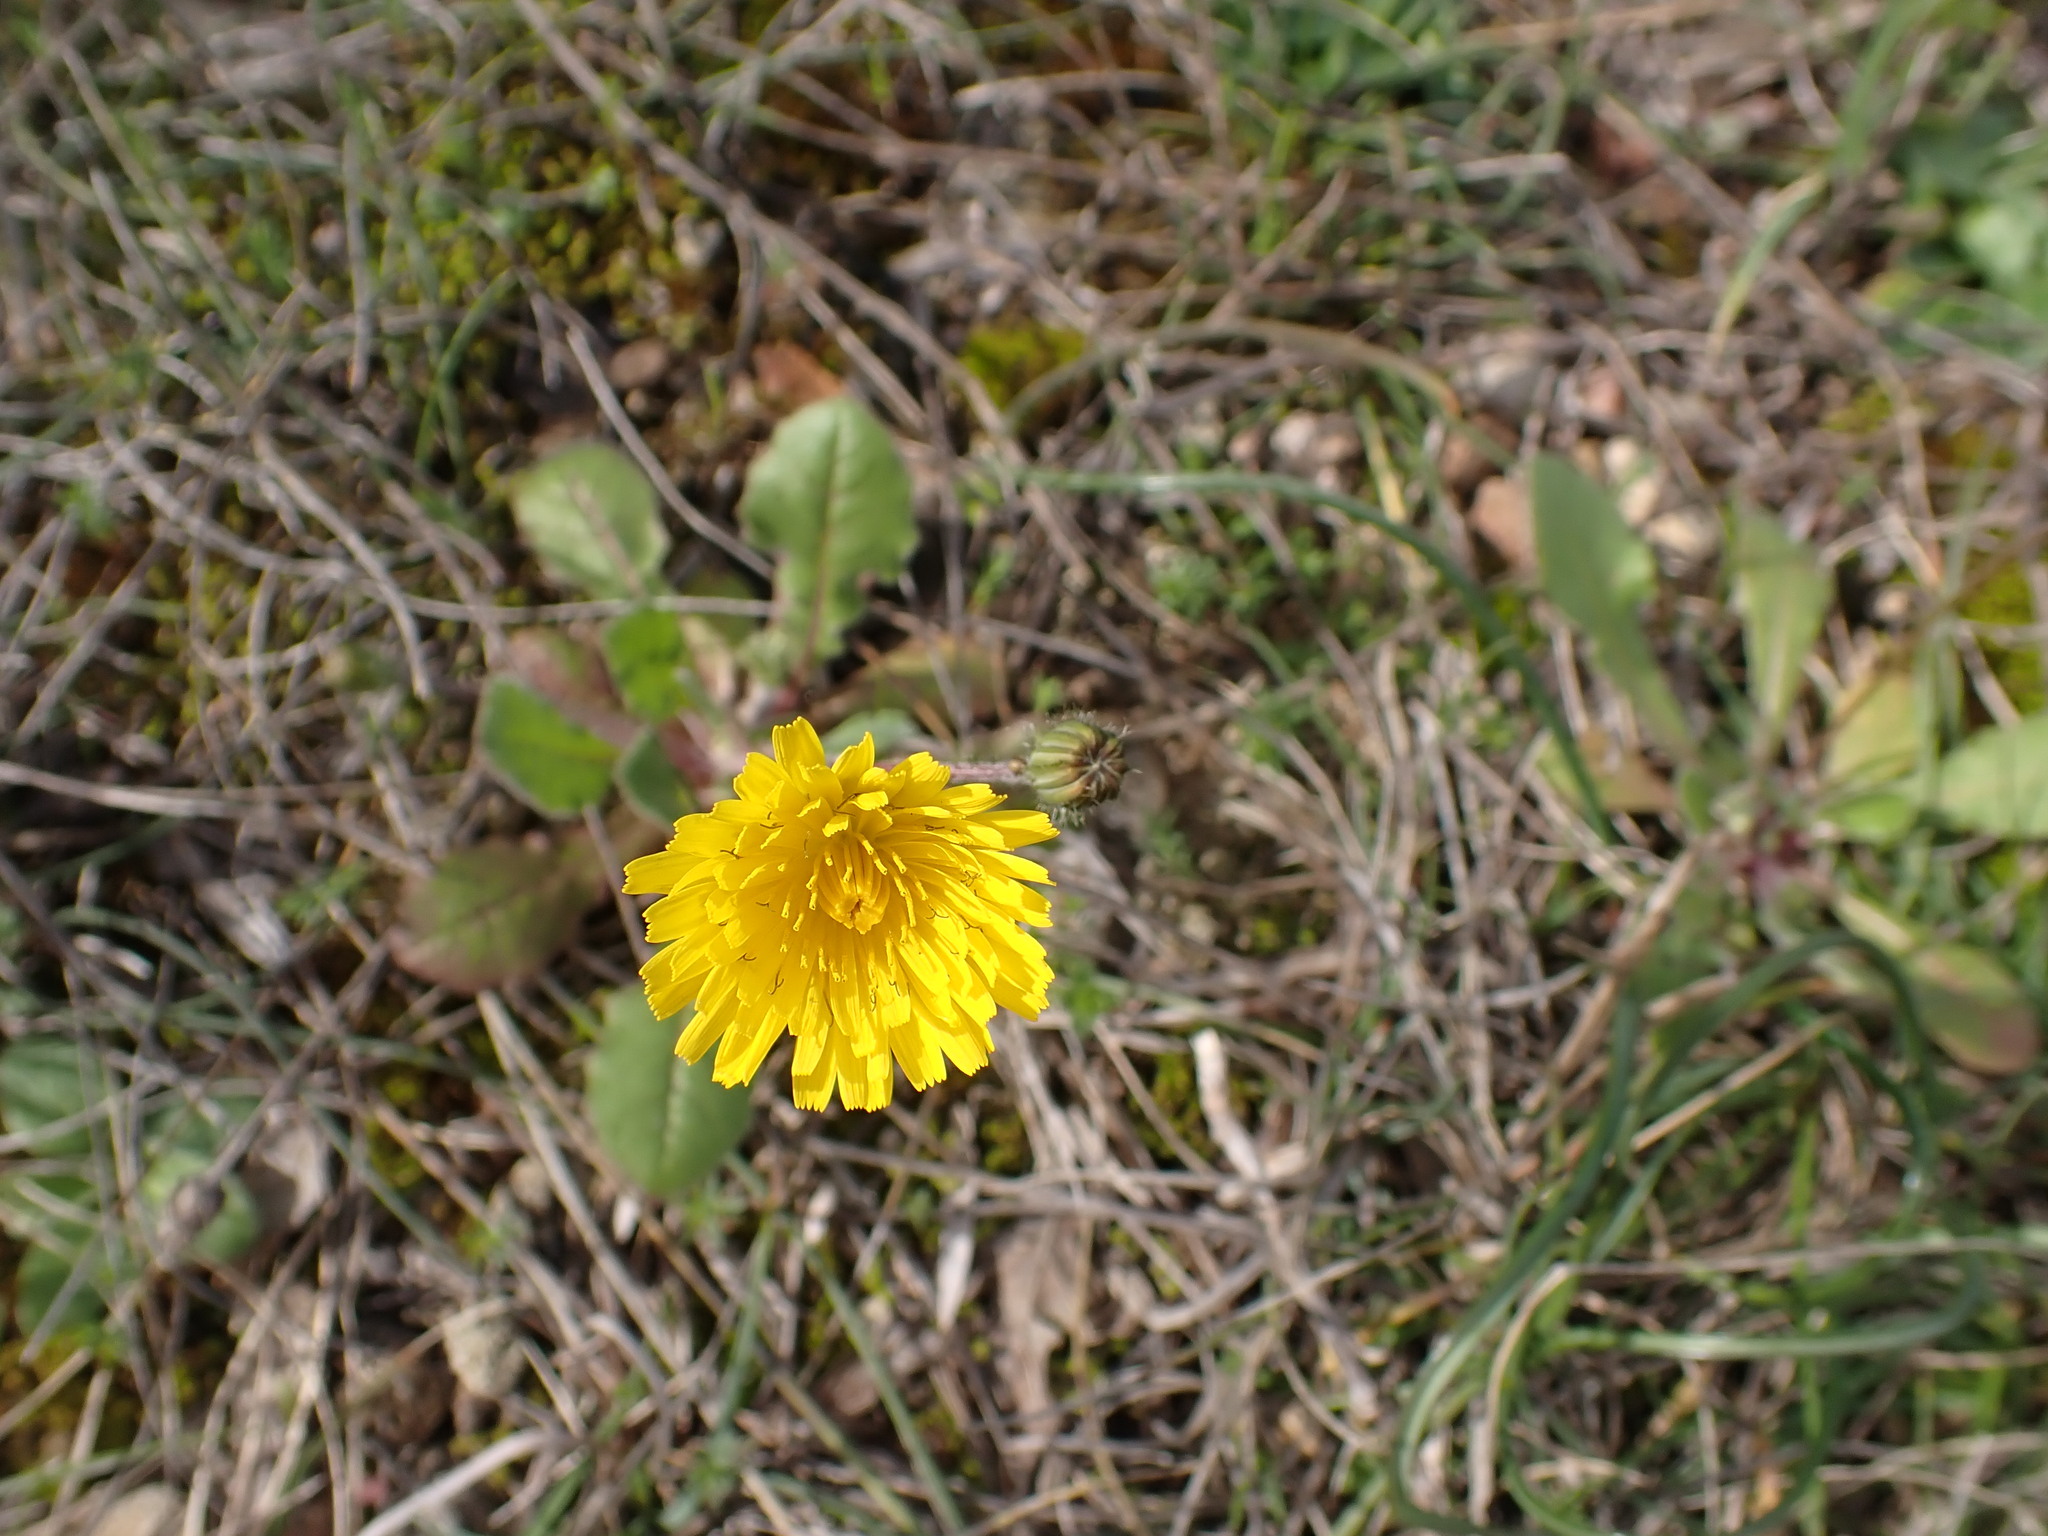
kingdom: Plantae
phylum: Tracheophyta
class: Magnoliopsida
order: Asterales
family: Asteraceae
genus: Crepis
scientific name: Crepis sancta
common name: Hawk's-beard
